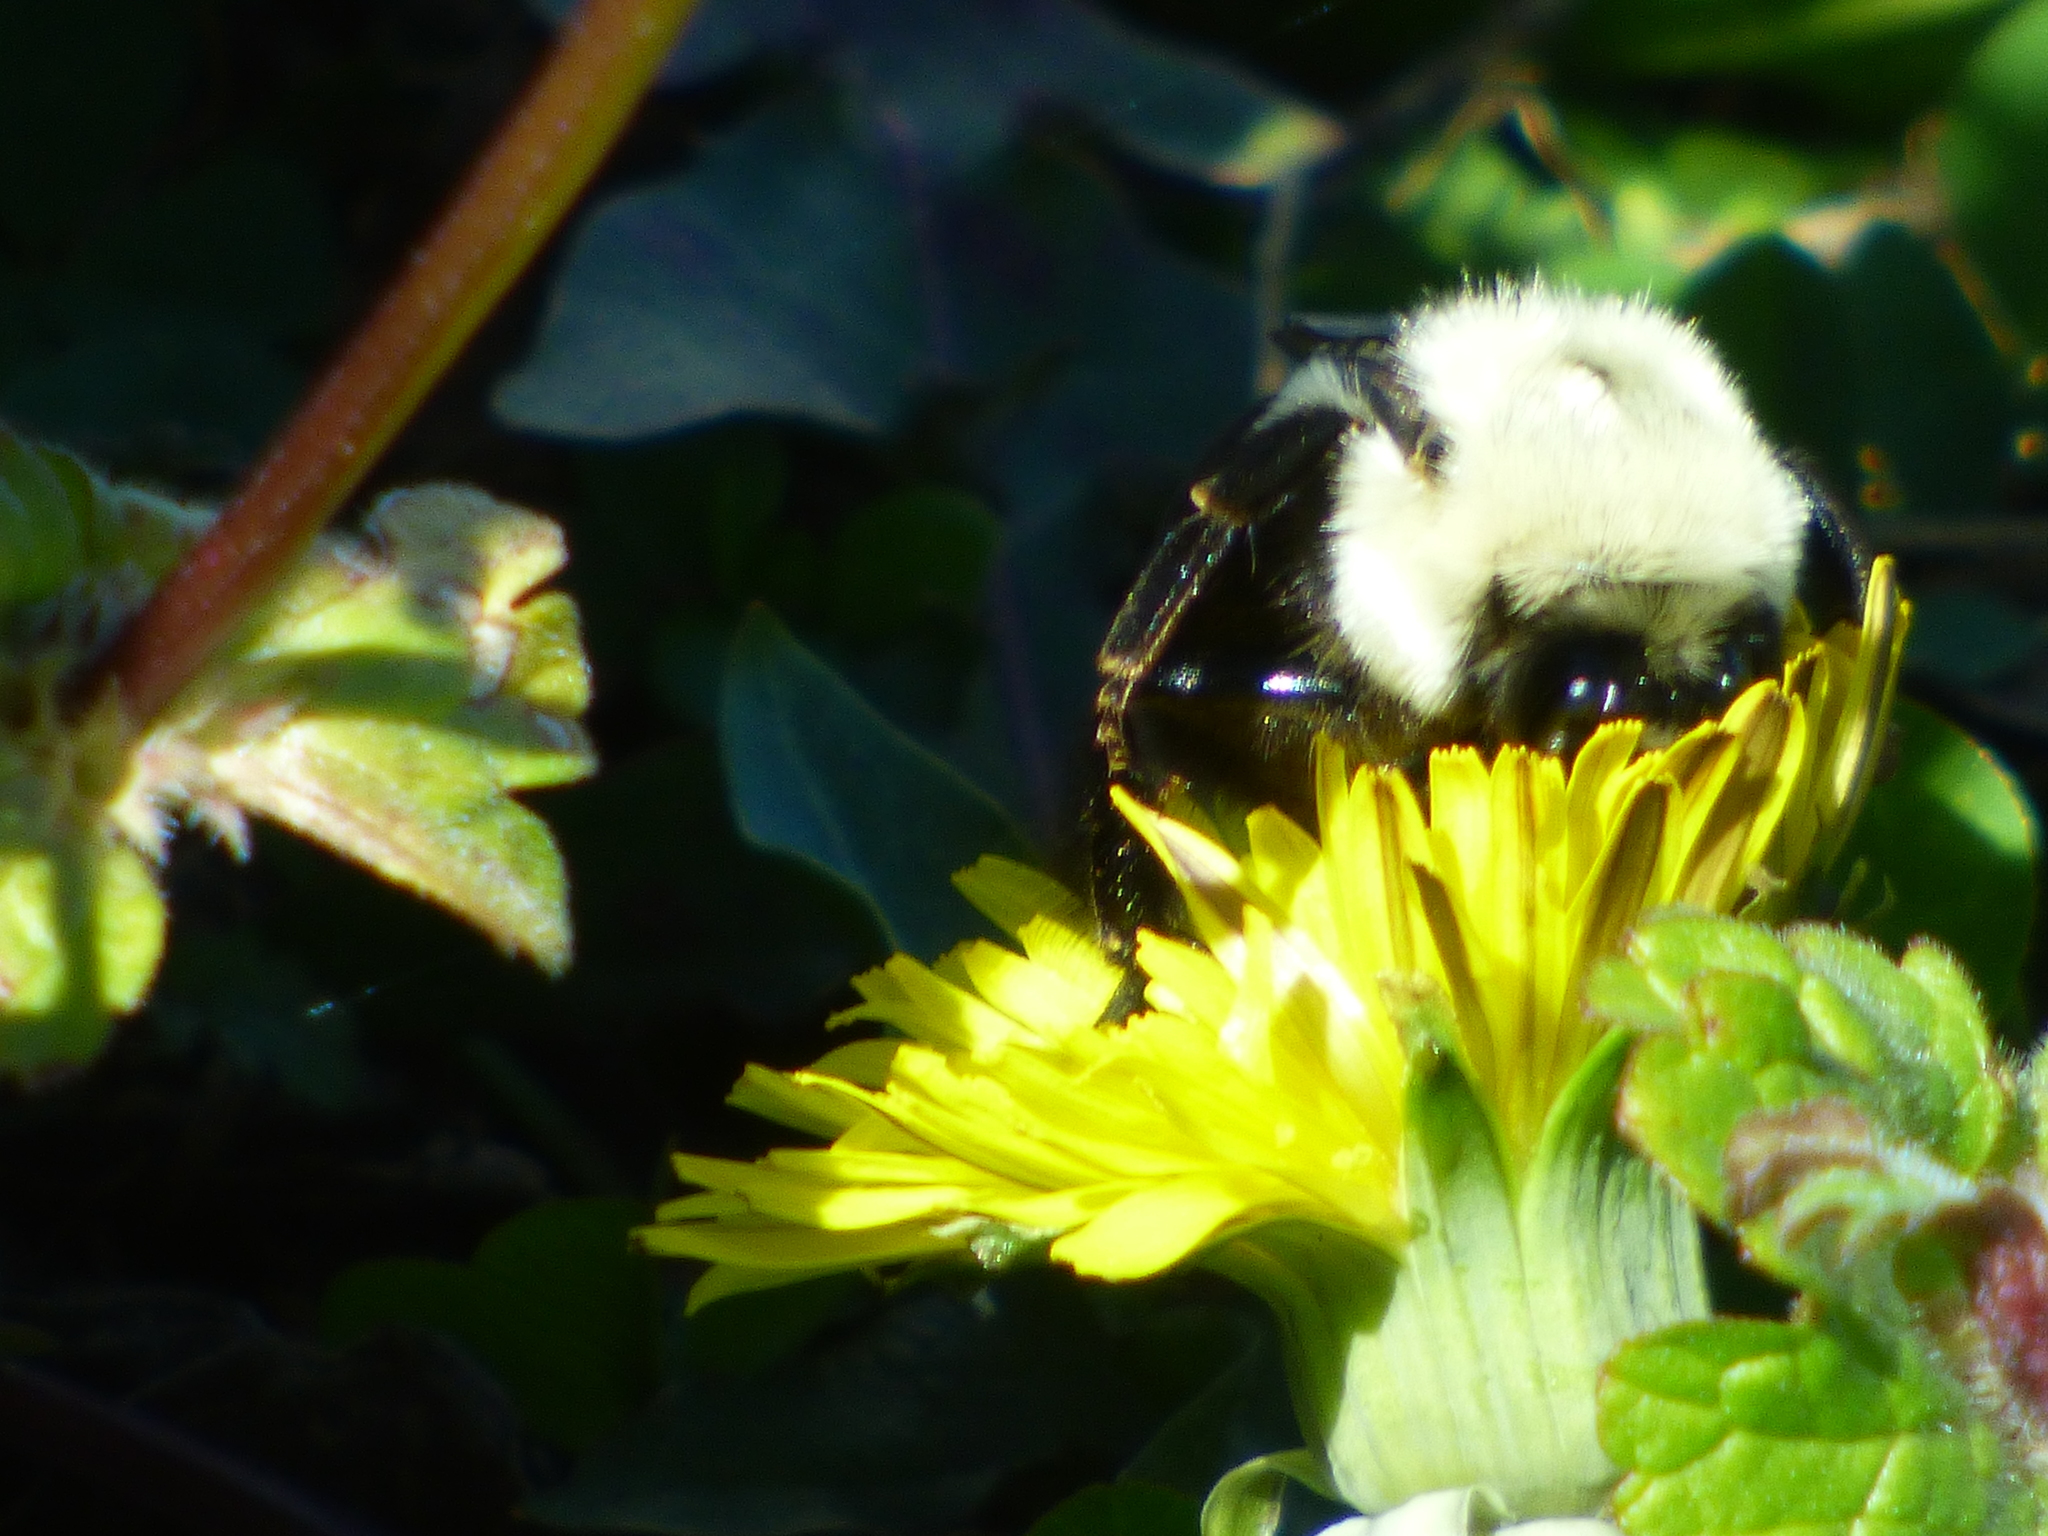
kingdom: Animalia
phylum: Arthropoda
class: Insecta
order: Hymenoptera
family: Apidae
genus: Bombus
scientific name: Bombus impatiens
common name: Common eastern bumble bee
